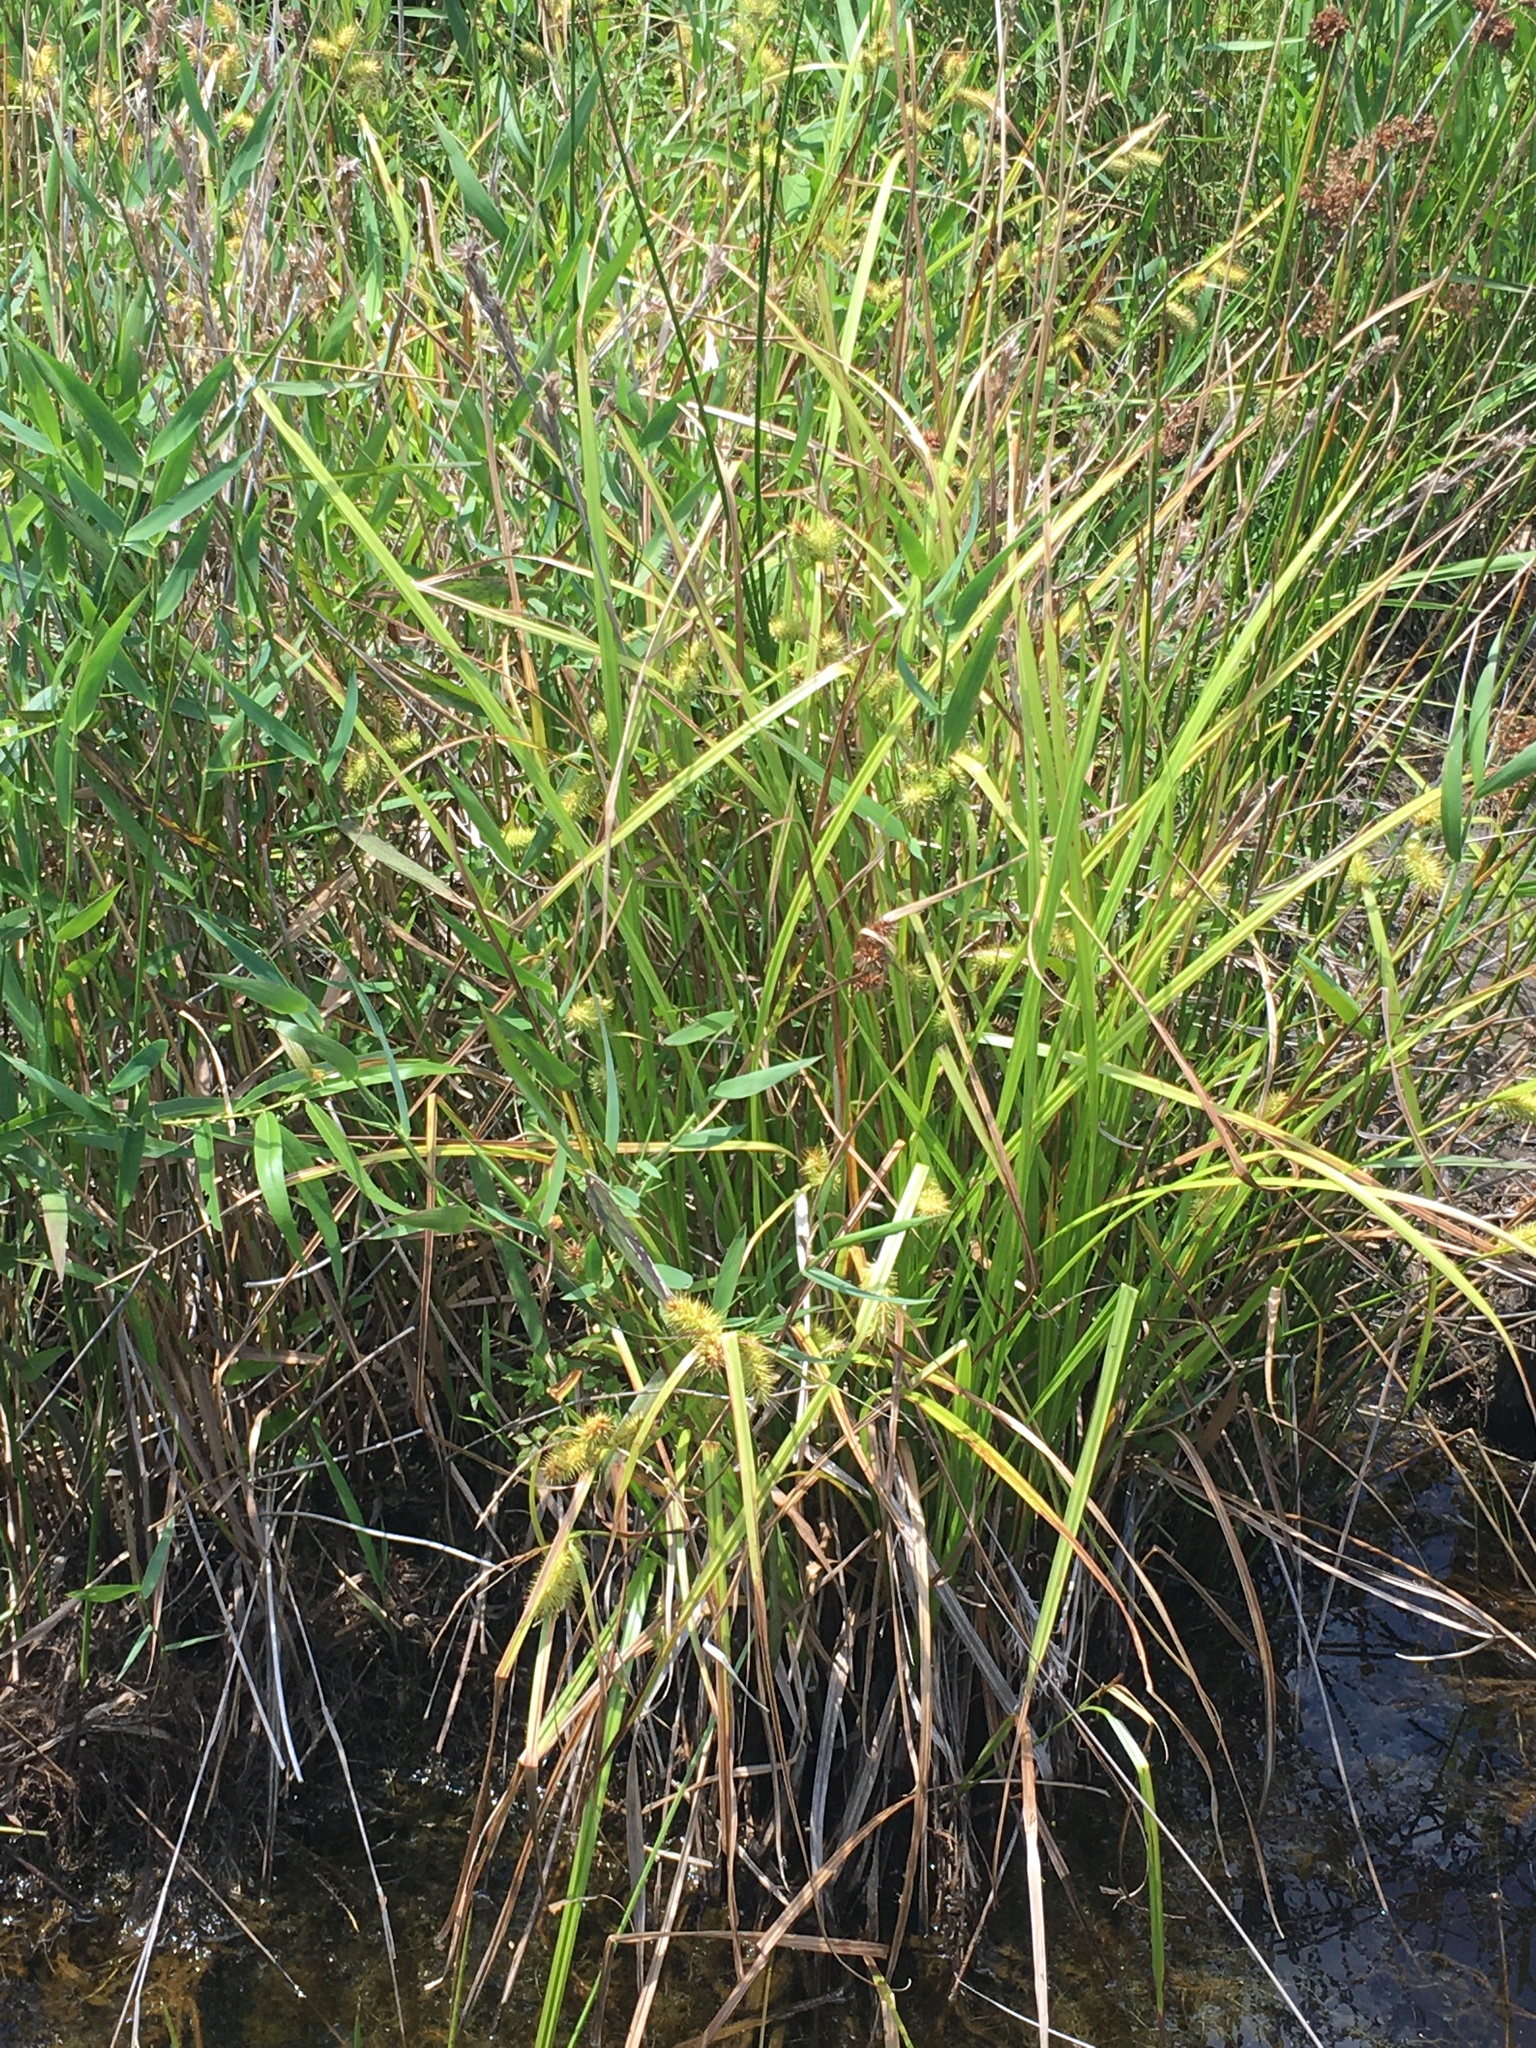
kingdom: Plantae
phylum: Tracheophyta
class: Liliopsida
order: Poales
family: Cyperaceae
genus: Carex
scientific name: Carex lurida
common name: Sallow sedge
